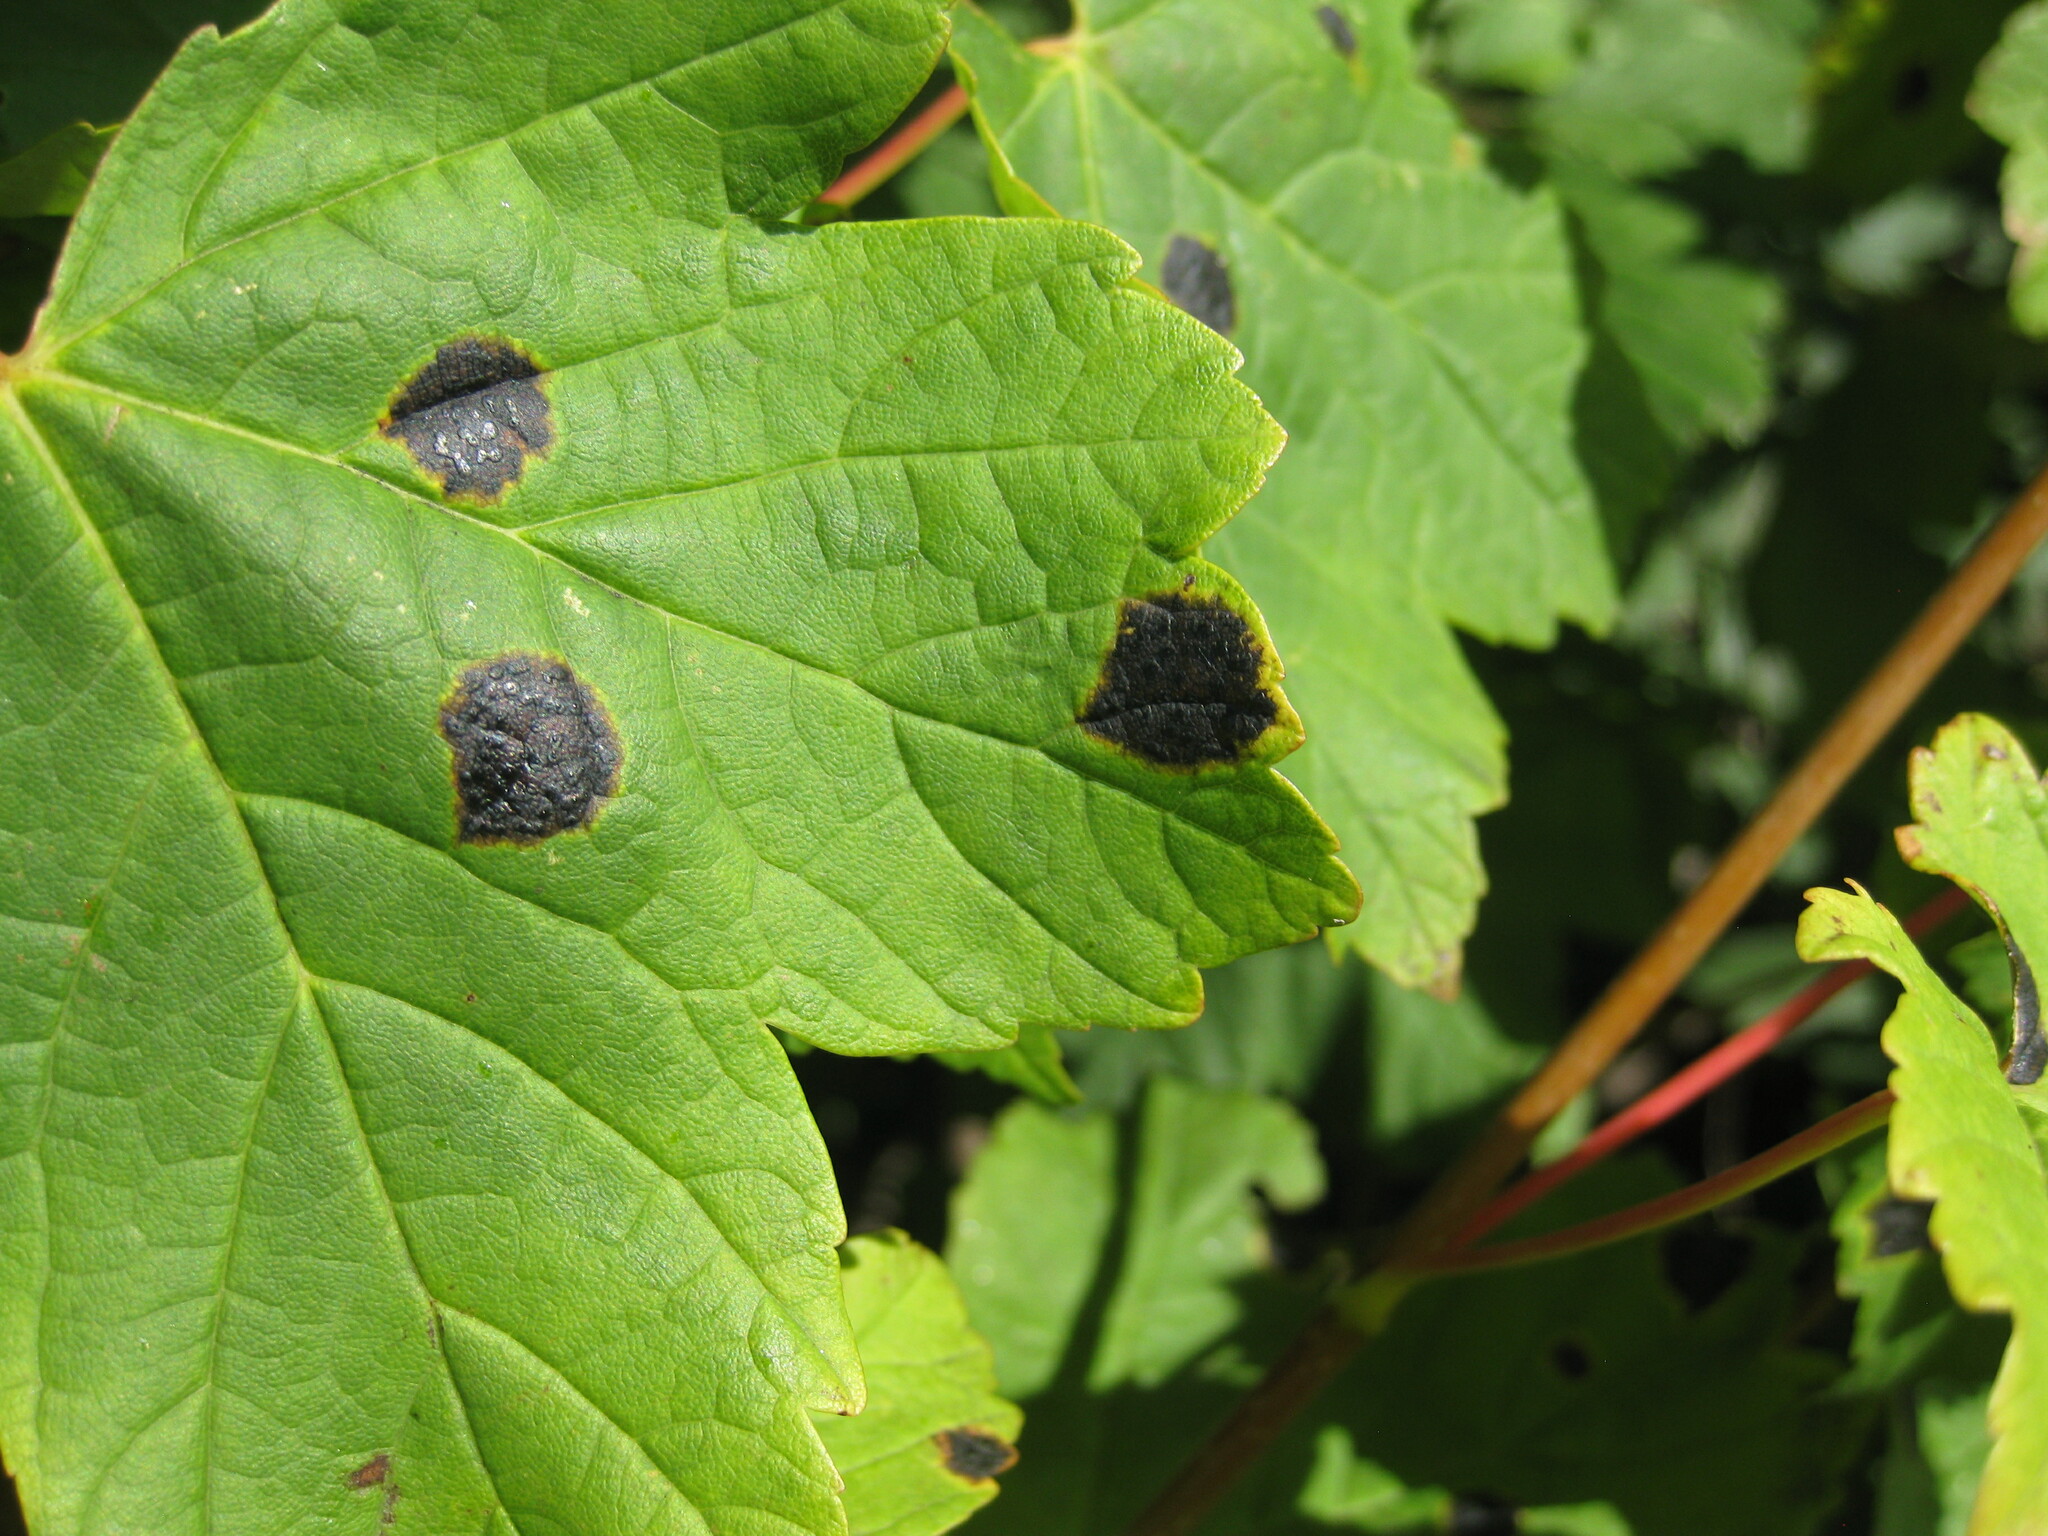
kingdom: Fungi
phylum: Ascomycota
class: Leotiomycetes
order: Rhytismatales
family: Rhytismataceae
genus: Rhytisma
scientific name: Rhytisma acerinum
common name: European tar spot
